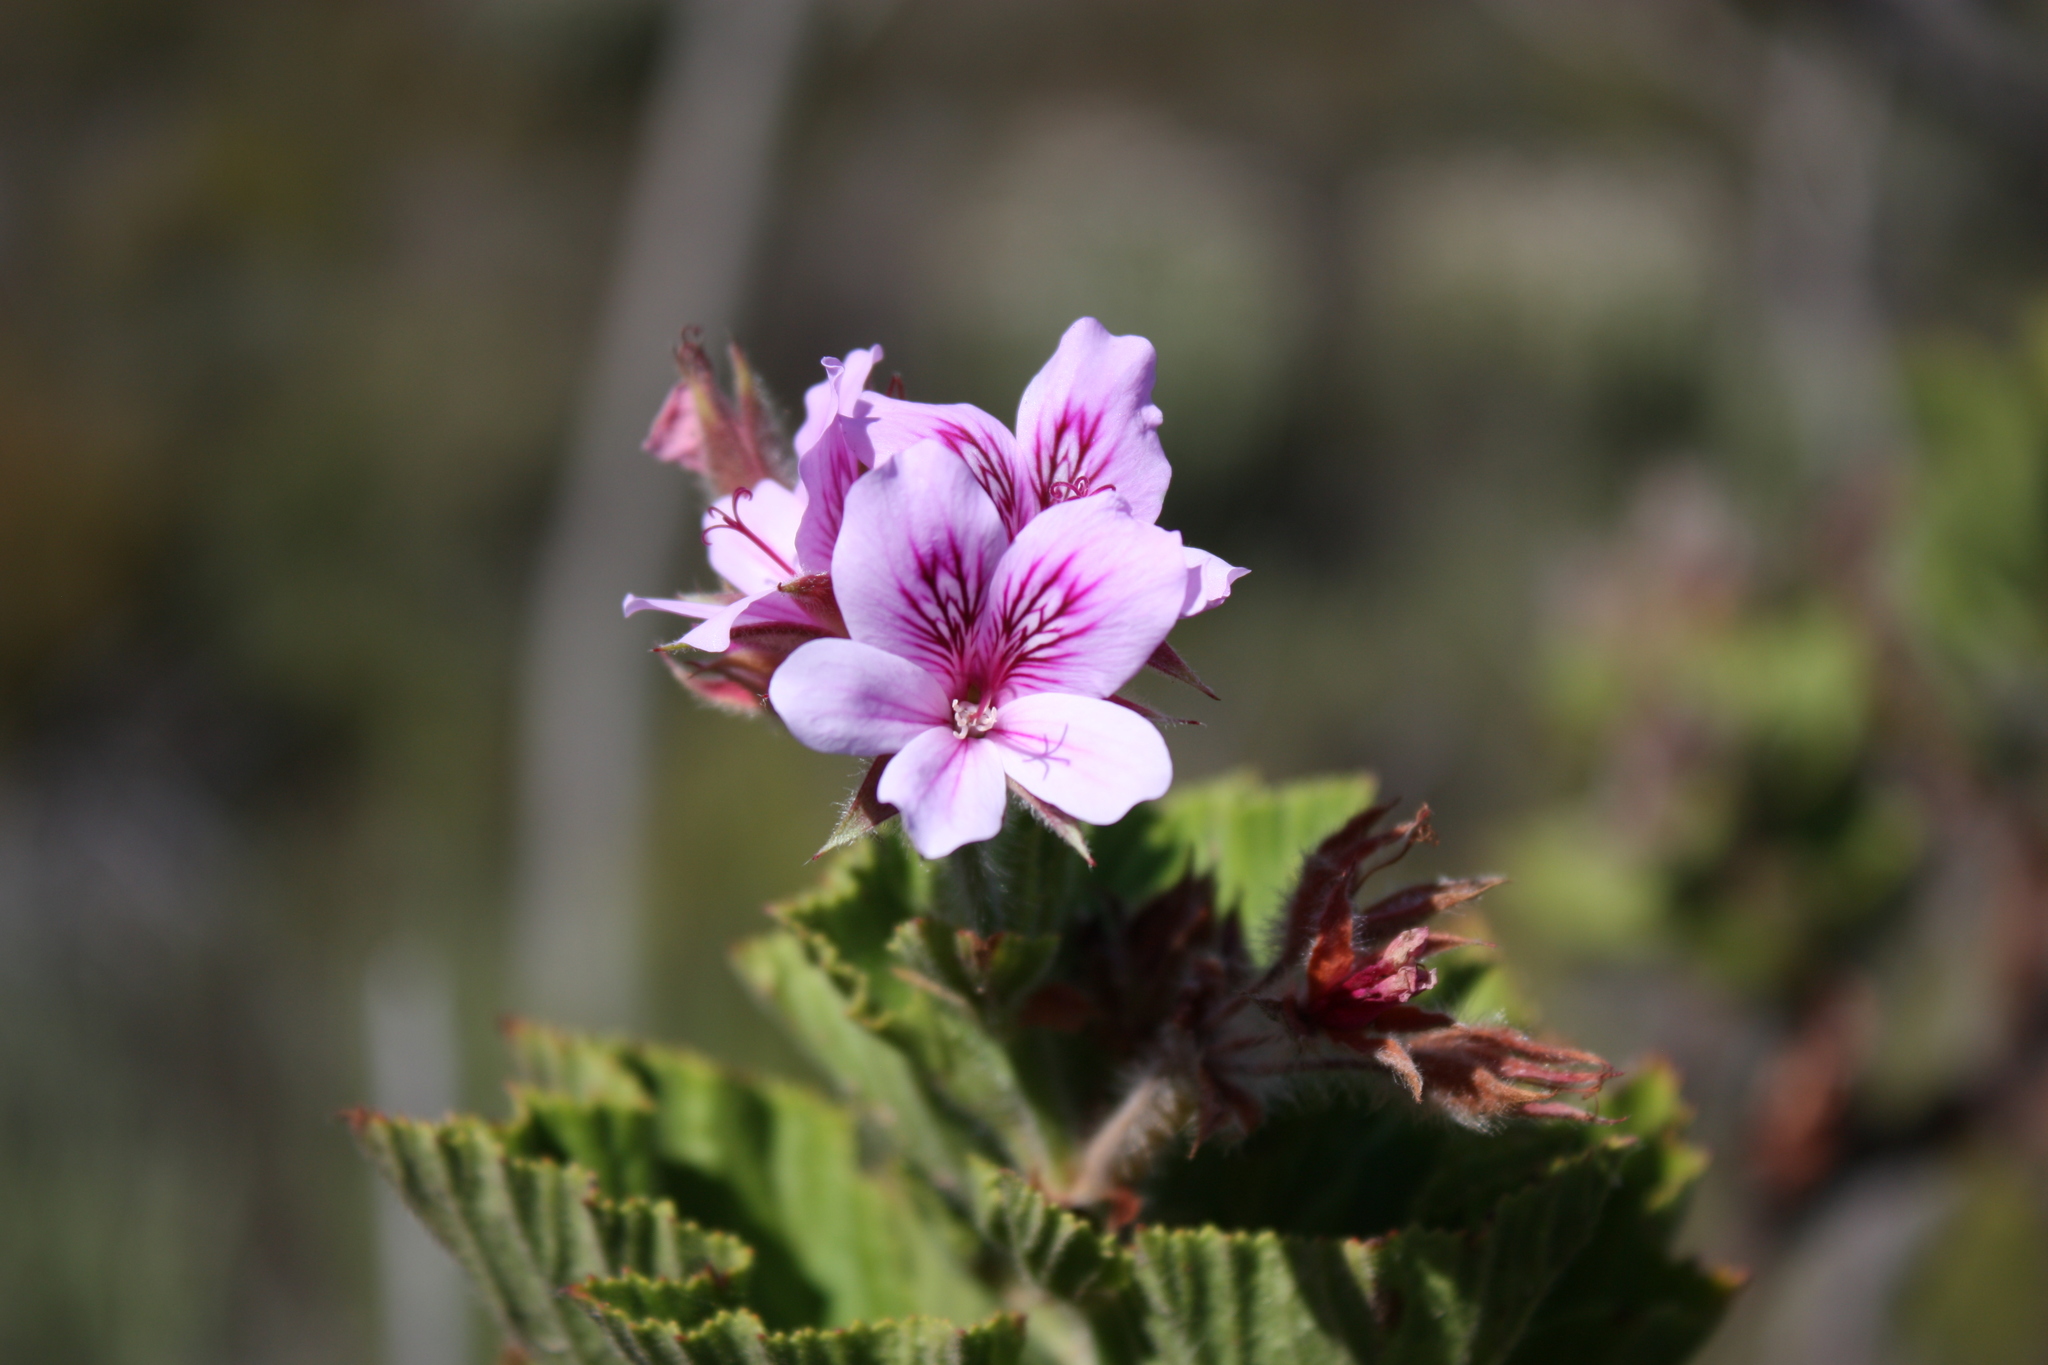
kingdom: Plantae
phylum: Tracheophyta
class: Magnoliopsida
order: Geraniales
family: Geraniaceae
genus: Pelargonium
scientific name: Pelargonium cucullatum
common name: Tree pelargonium
